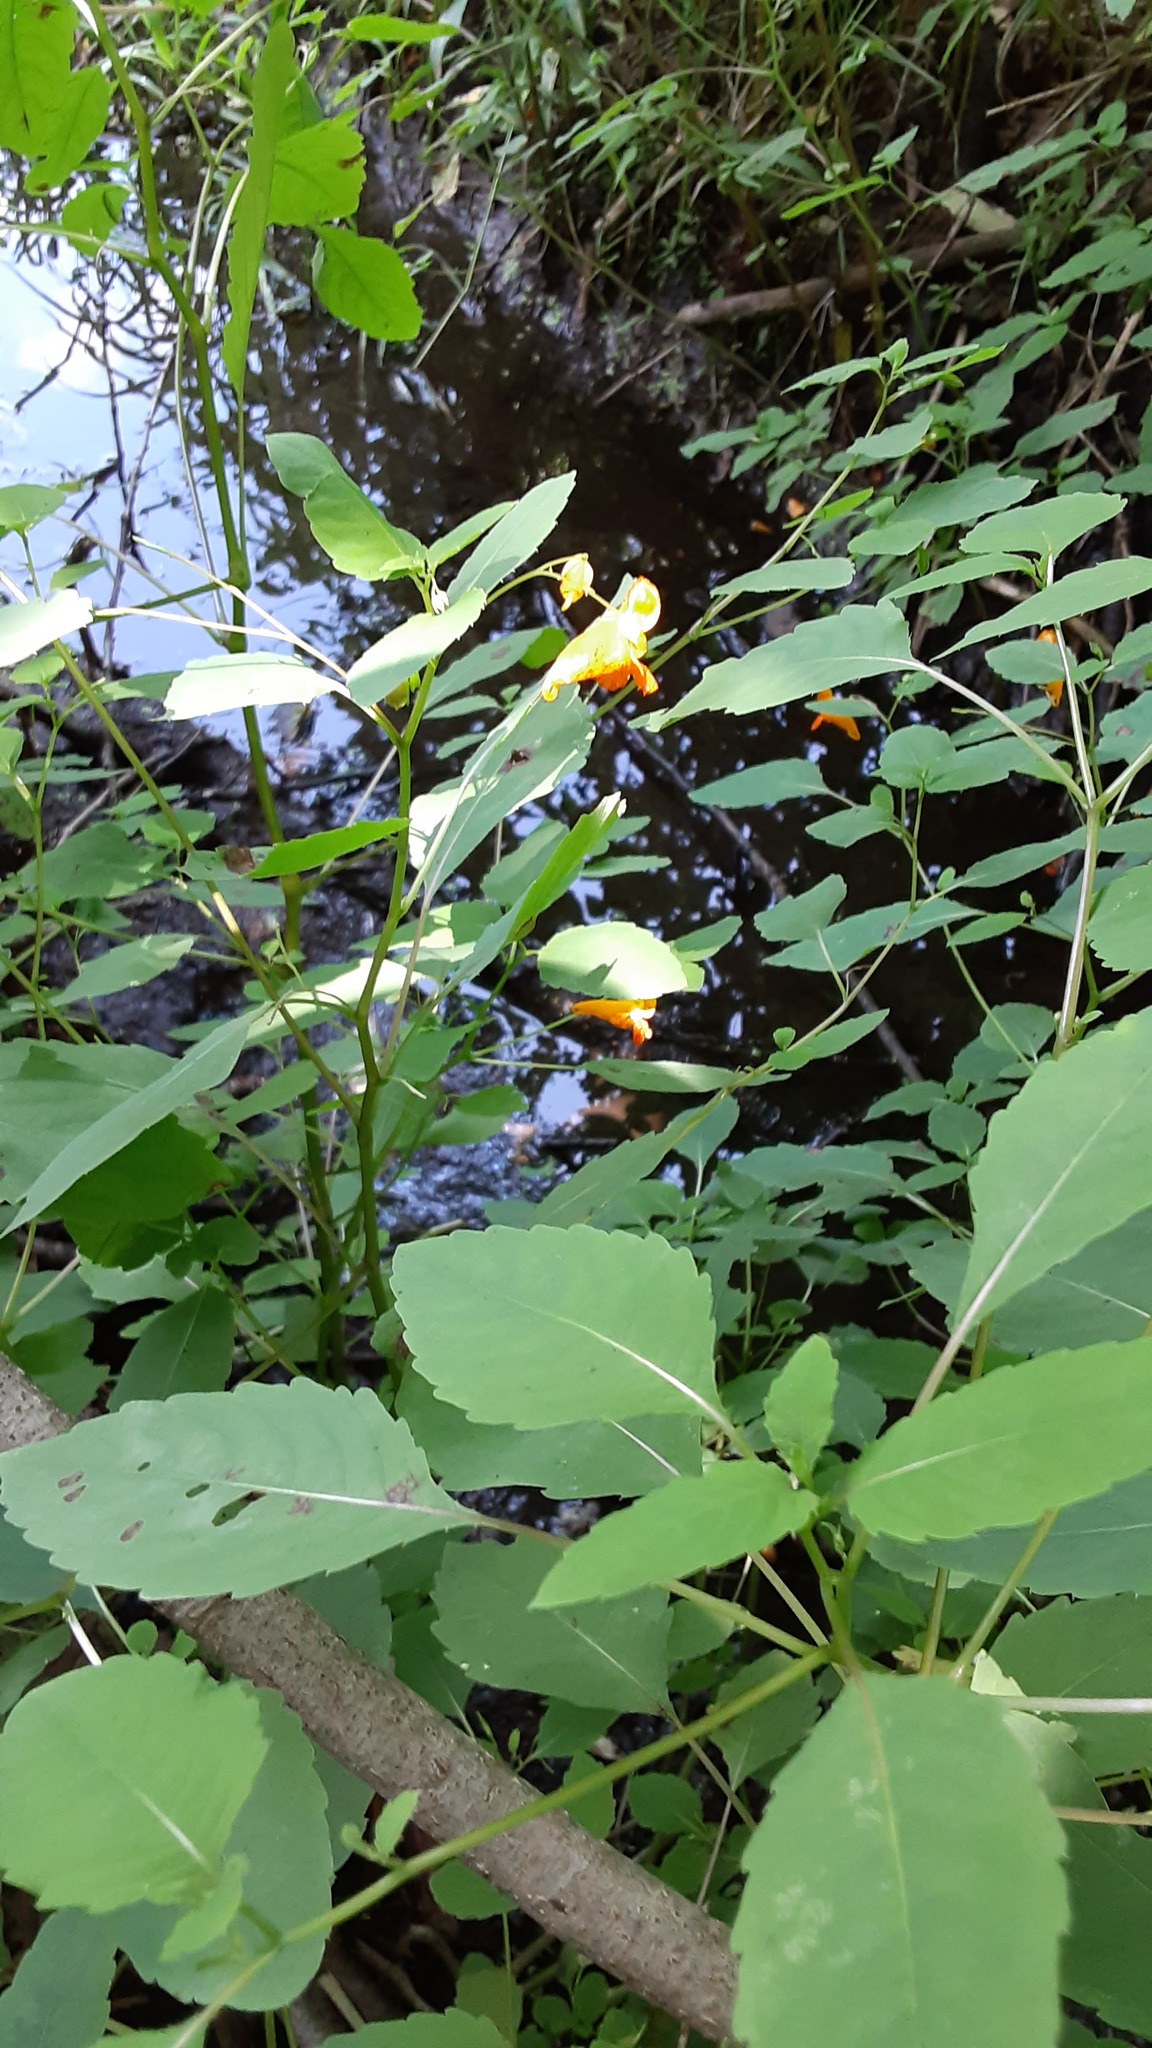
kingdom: Plantae
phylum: Tracheophyta
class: Magnoliopsida
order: Ericales
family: Balsaminaceae
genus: Impatiens
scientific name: Impatiens capensis
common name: Orange balsam
